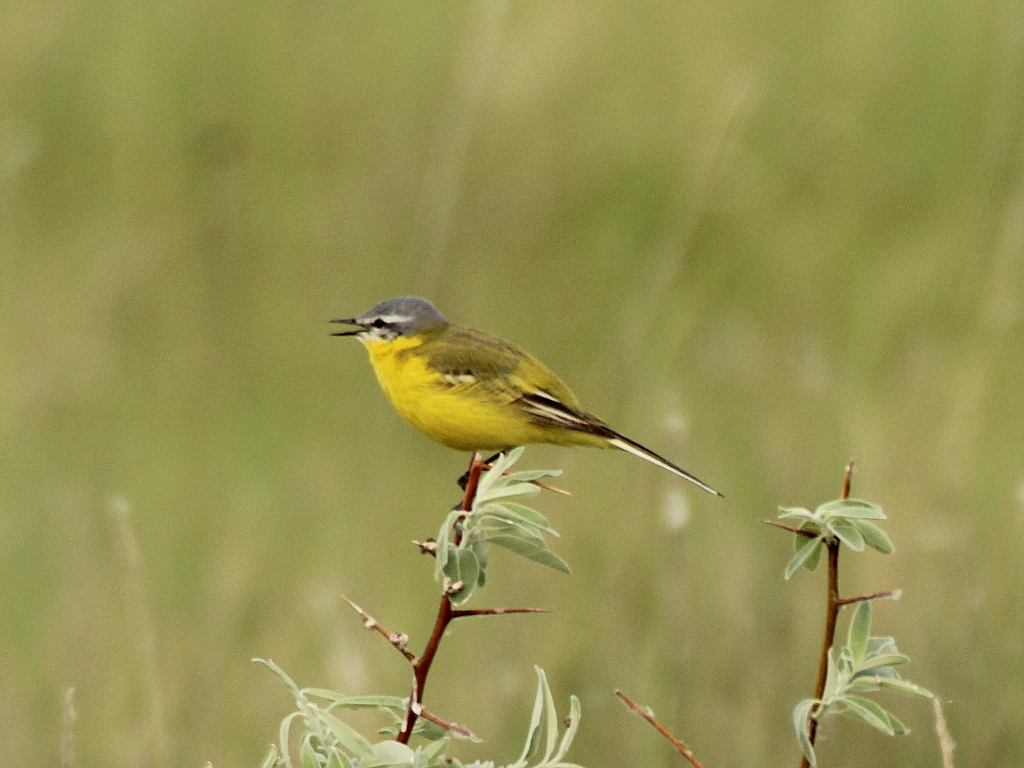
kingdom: Animalia
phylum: Chordata
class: Aves
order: Passeriformes
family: Motacillidae
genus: Motacilla
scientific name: Motacilla flava
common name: Western yellow wagtail
